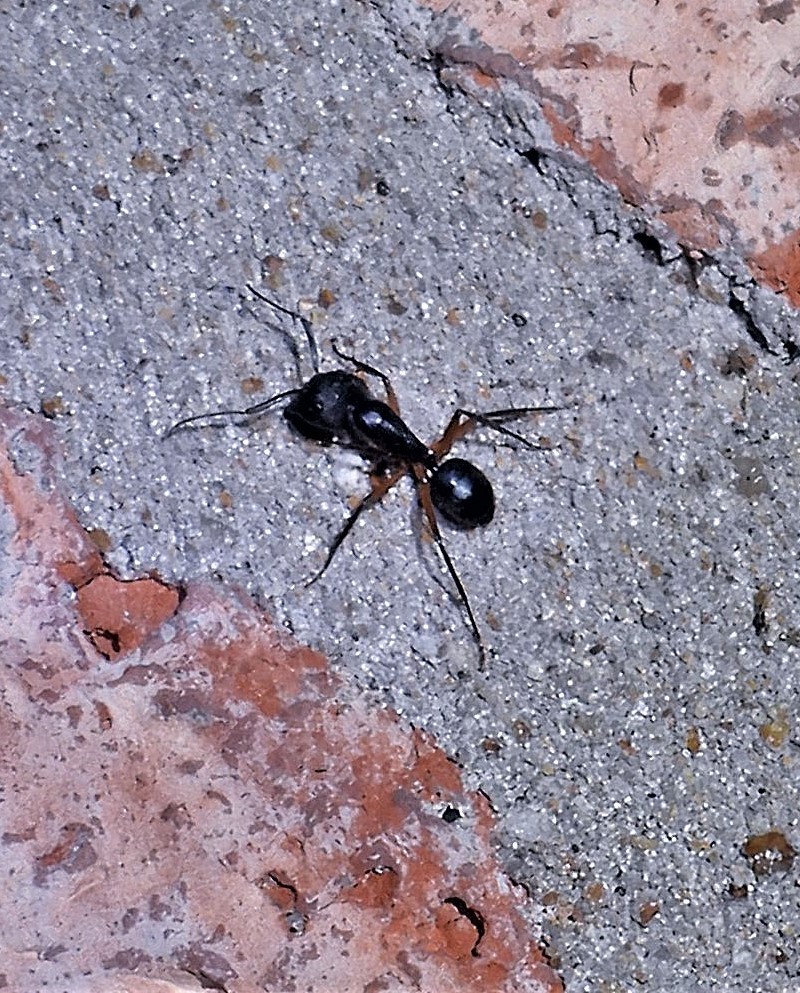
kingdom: Animalia
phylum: Arthropoda
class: Insecta
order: Hymenoptera
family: Formicidae
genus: Camponotus
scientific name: Camponotus renggeri
